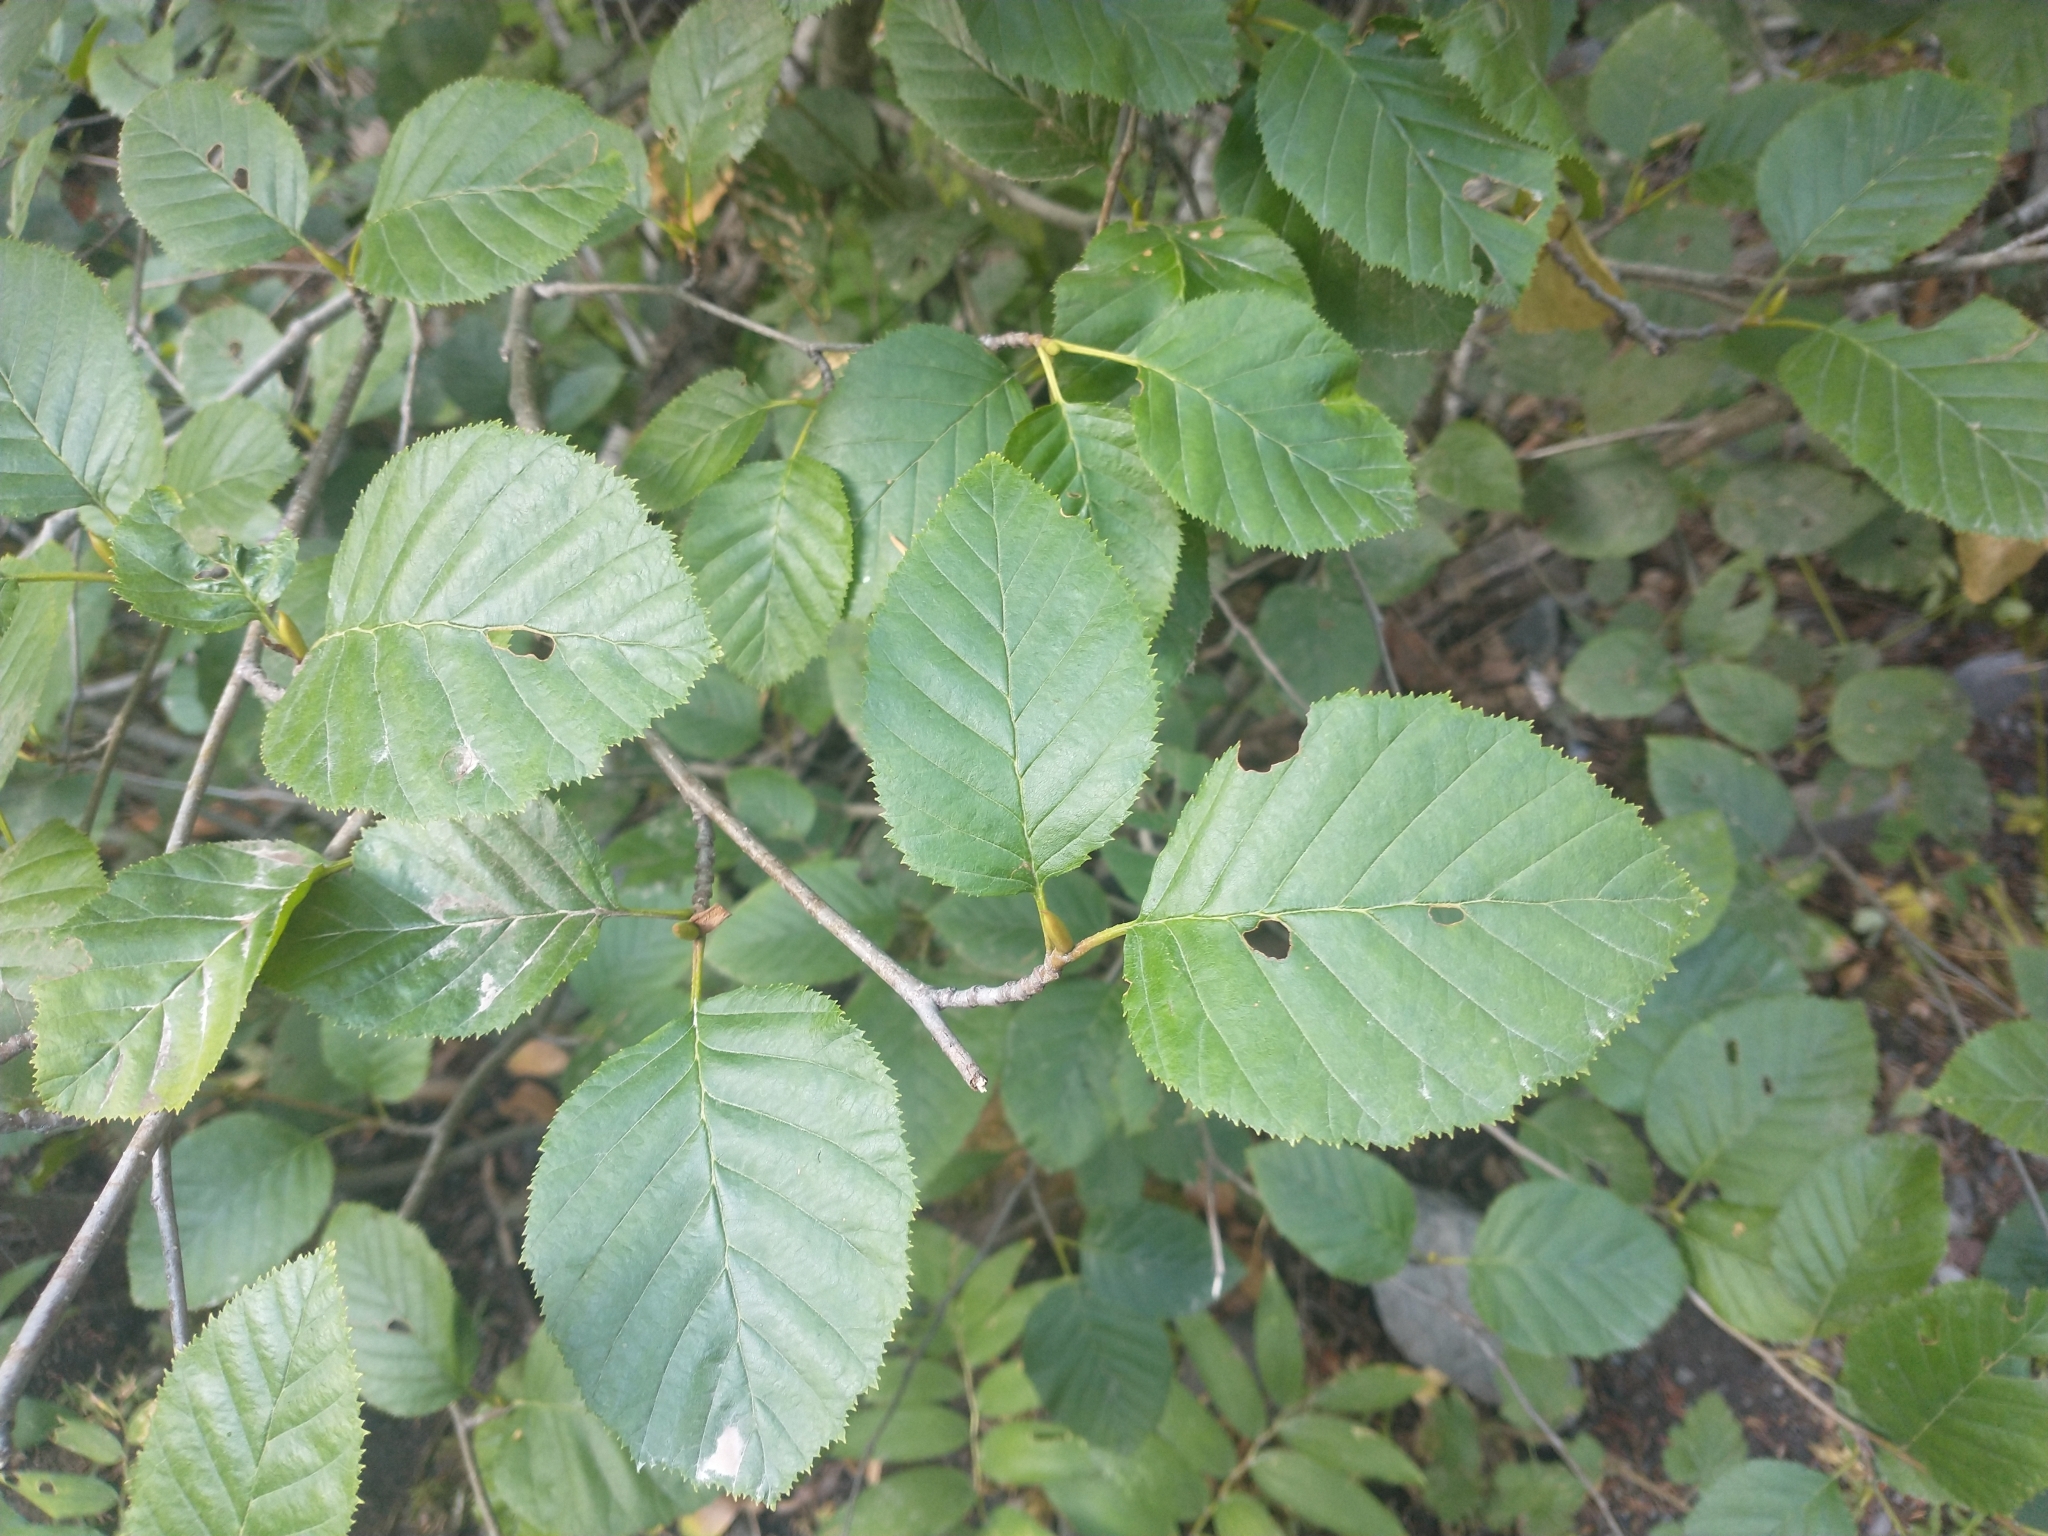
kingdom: Plantae
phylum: Tracheophyta
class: Magnoliopsida
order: Fagales
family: Betulaceae
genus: Alnus
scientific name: Alnus alnobetula
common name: Green alder
